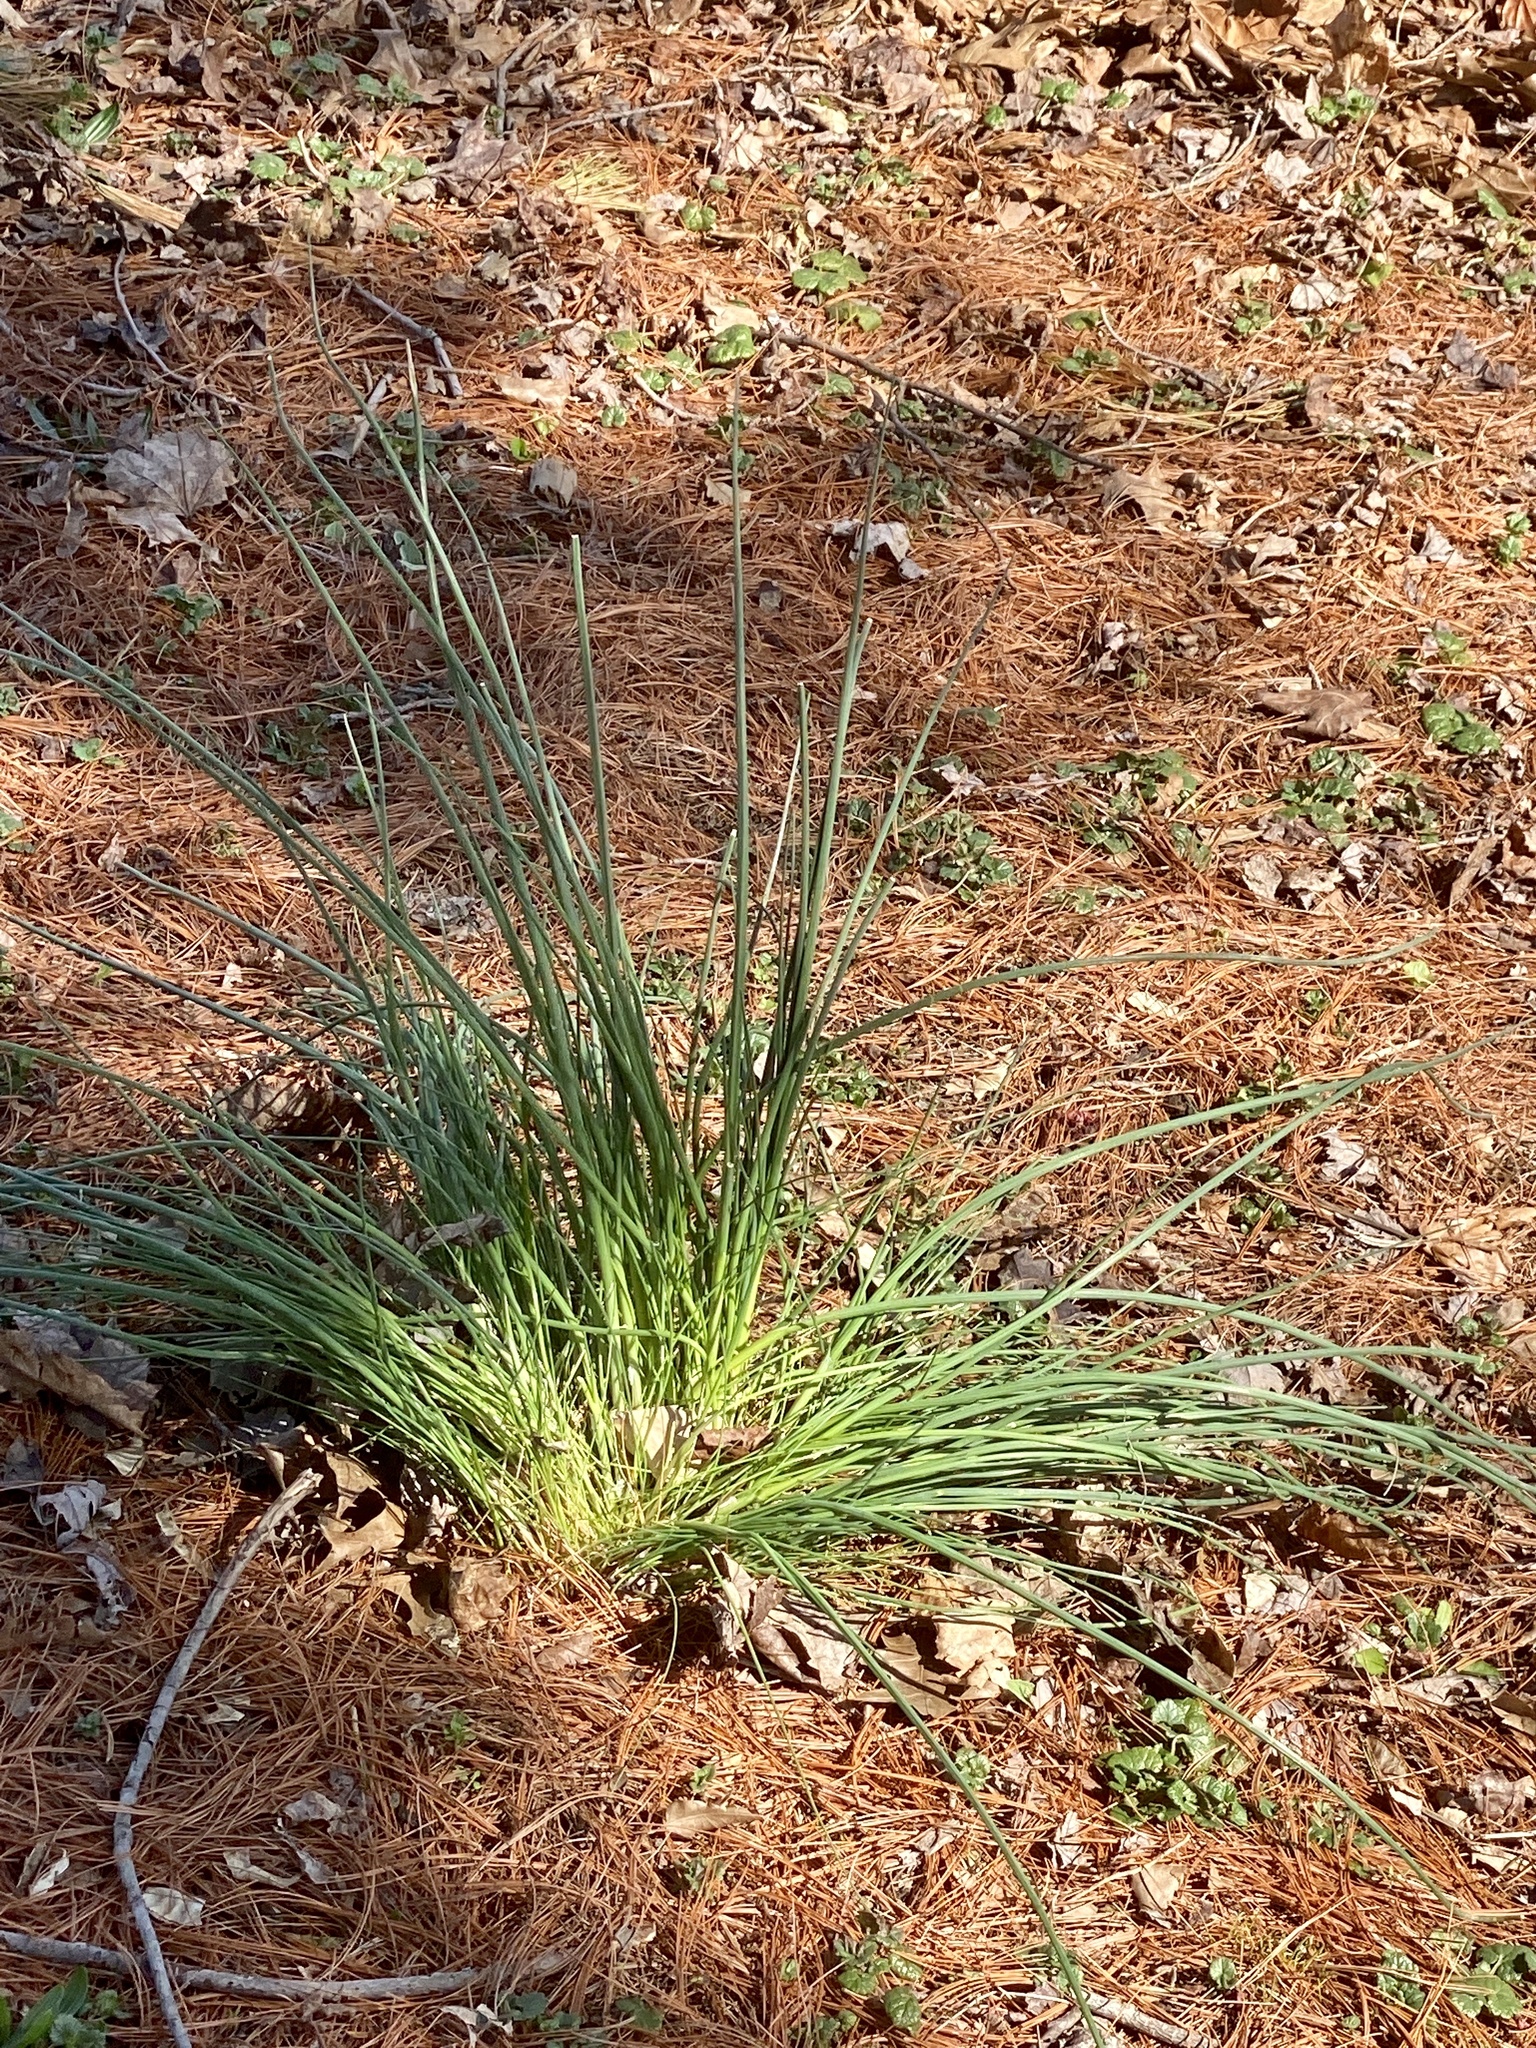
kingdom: Plantae
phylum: Tracheophyta
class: Liliopsida
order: Asparagales
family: Amaryllidaceae
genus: Allium
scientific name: Allium vineale
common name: Crow garlic
